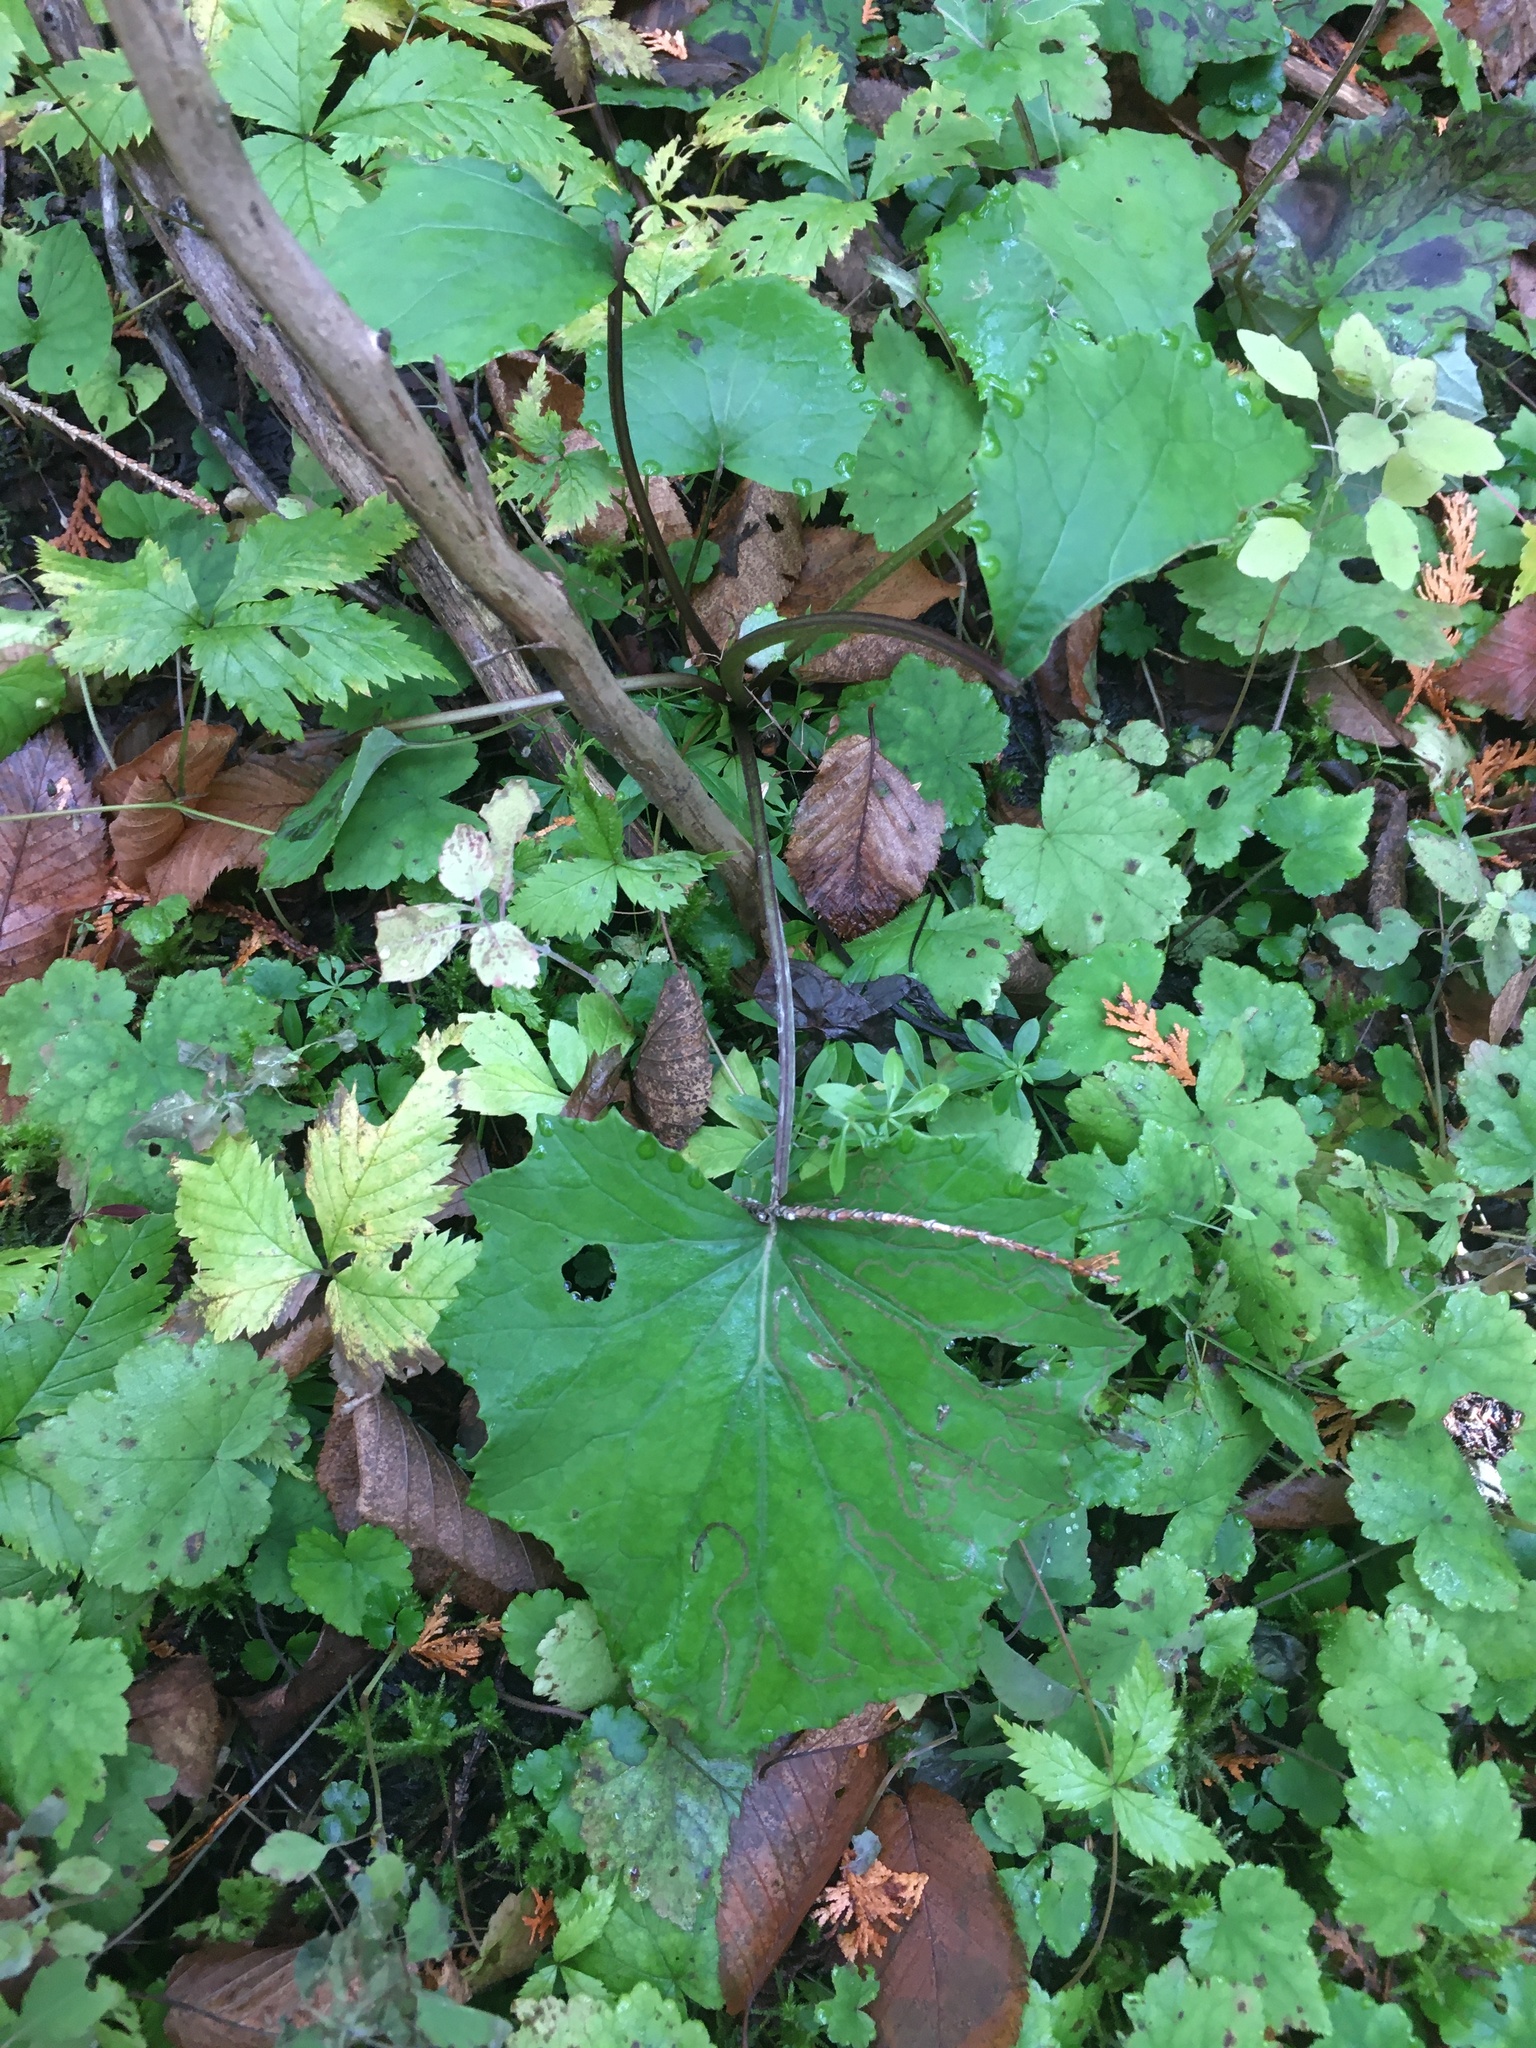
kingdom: Plantae
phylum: Tracheophyta
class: Magnoliopsida
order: Asterales
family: Asteraceae
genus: Tussilago
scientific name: Tussilago farfara
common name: Coltsfoot
